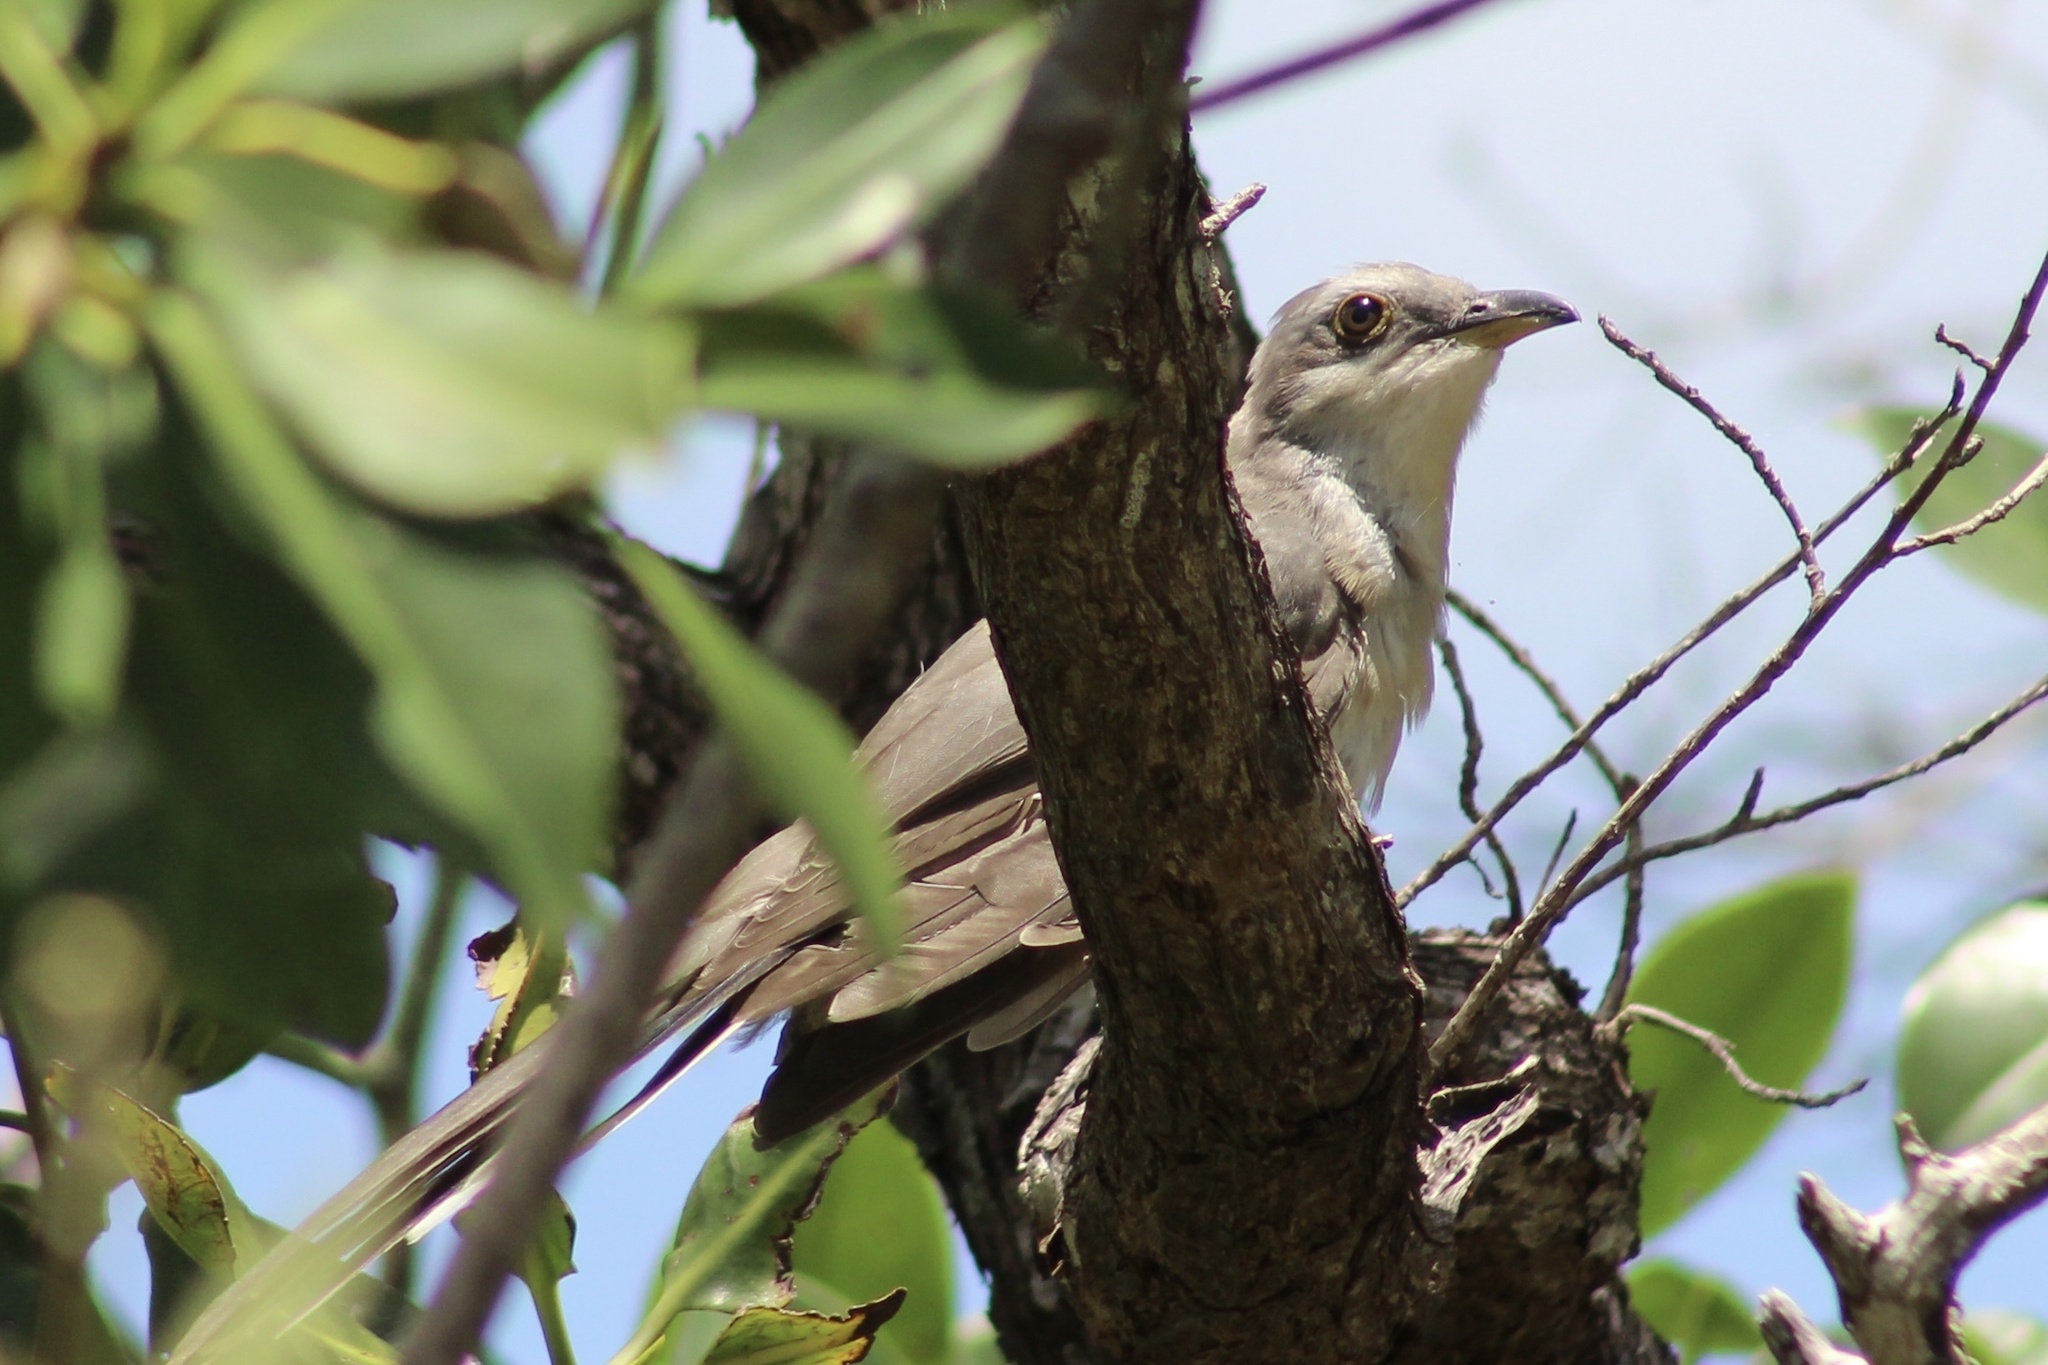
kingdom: Animalia
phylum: Chordata
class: Aves
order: Cuculiformes
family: Cuculidae
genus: Coccyzus
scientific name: Coccyzus minor
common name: Mangrove cuckoo
